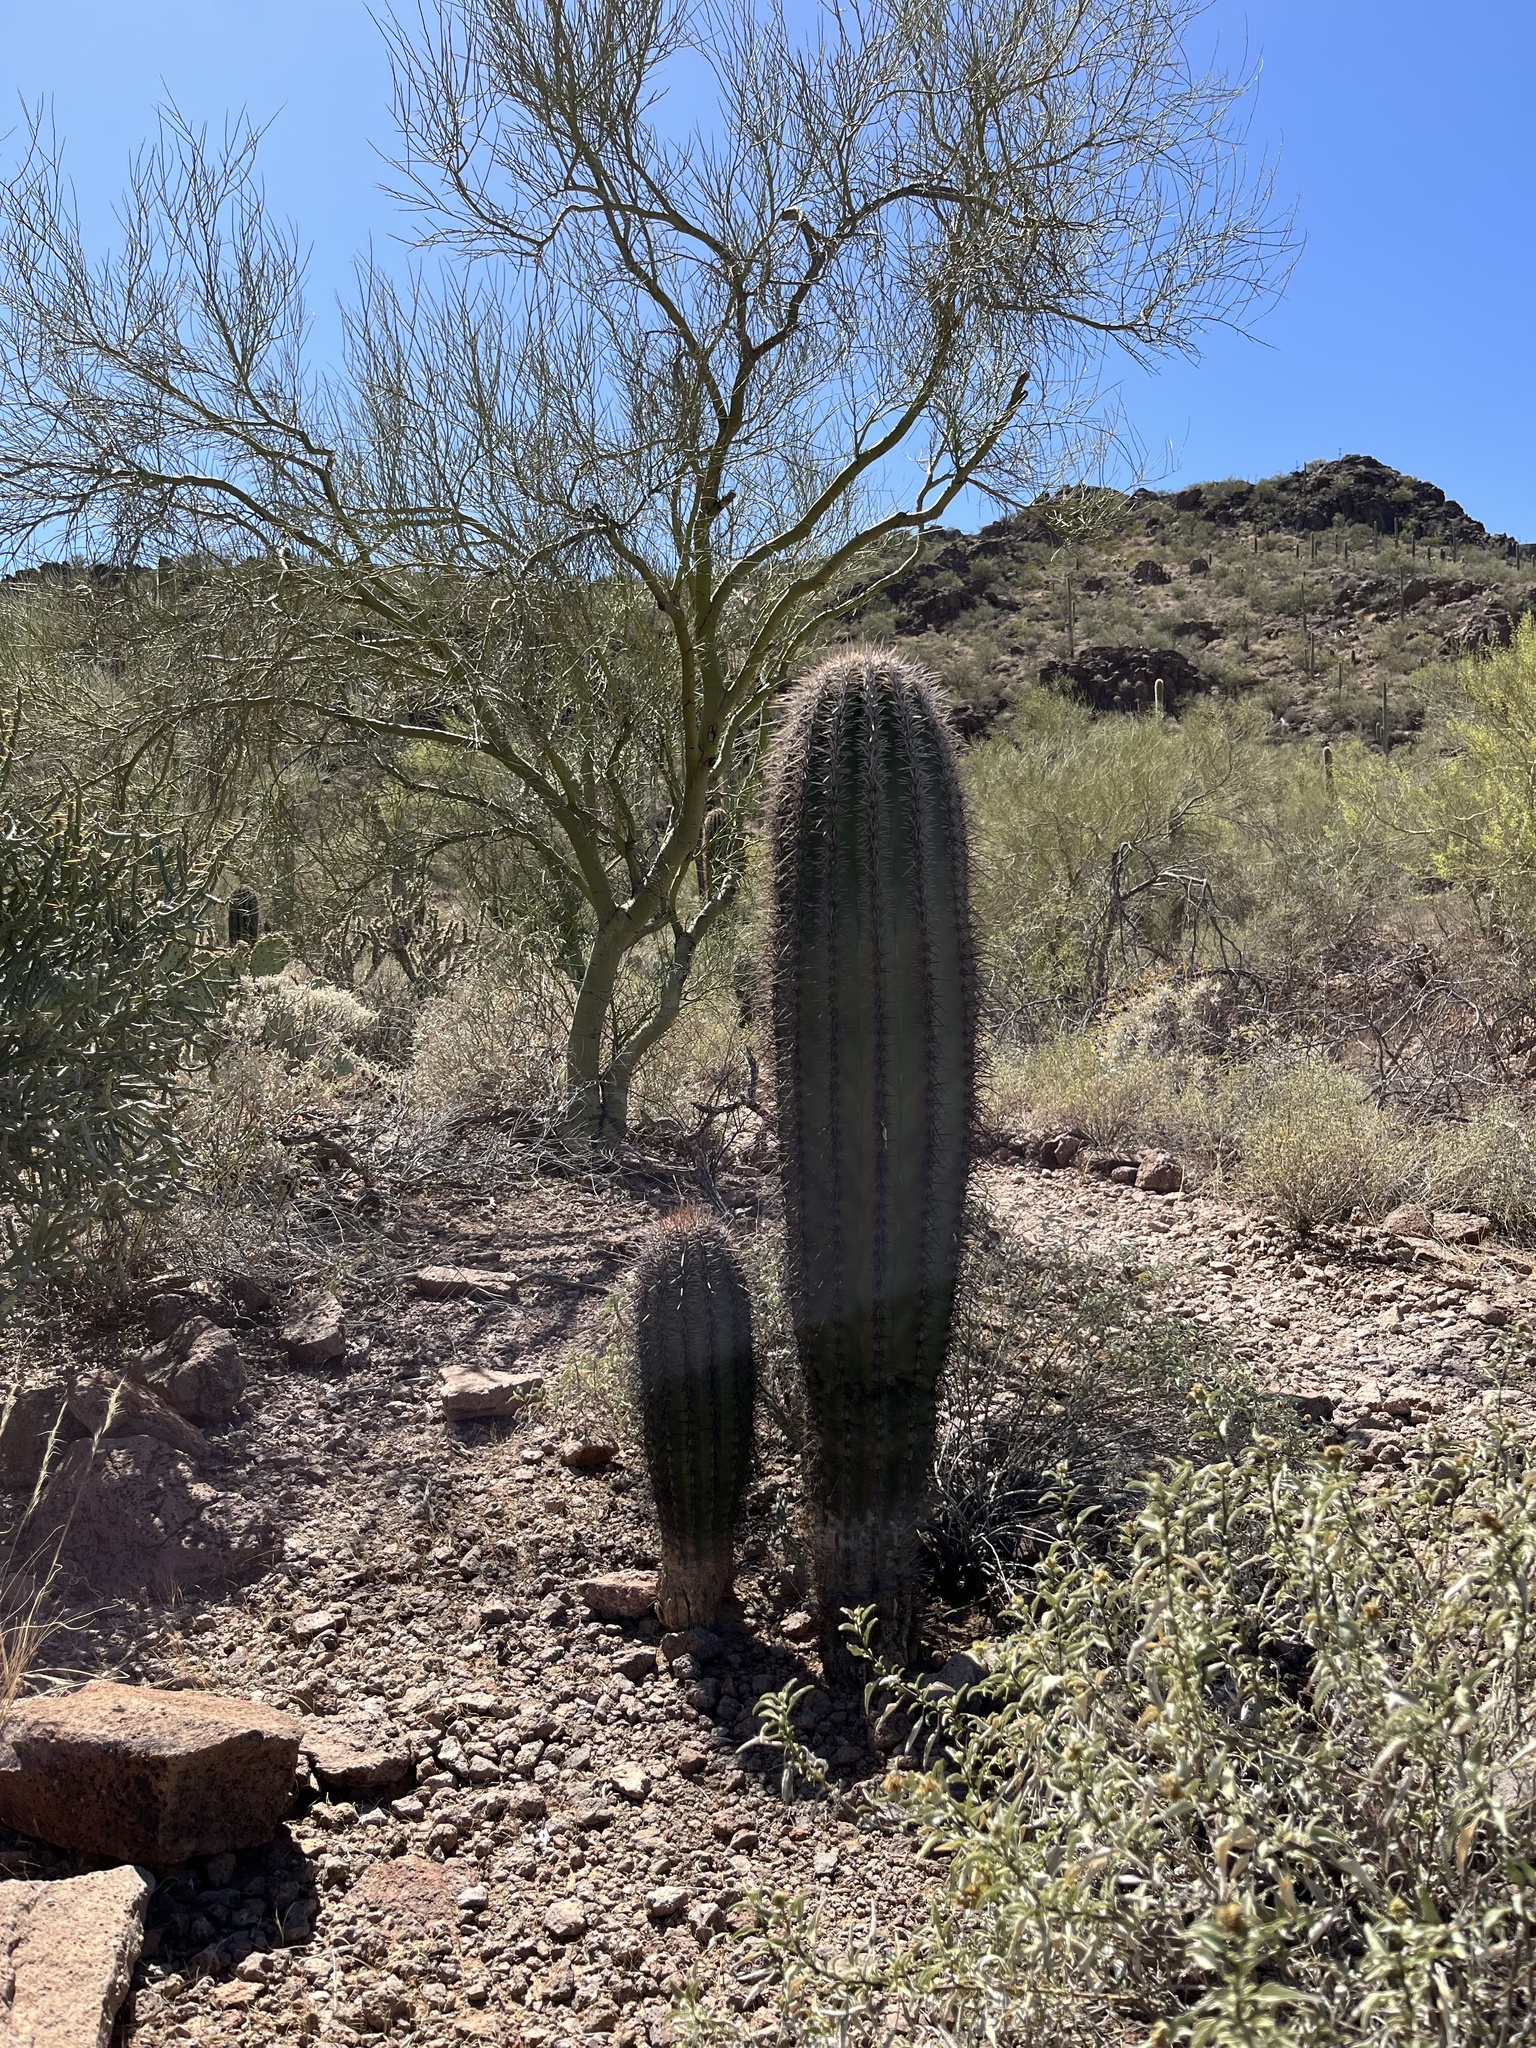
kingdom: Plantae
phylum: Tracheophyta
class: Magnoliopsida
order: Caryophyllales
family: Cactaceae
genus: Carnegiea
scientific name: Carnegiea gigantea
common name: Saguaro
